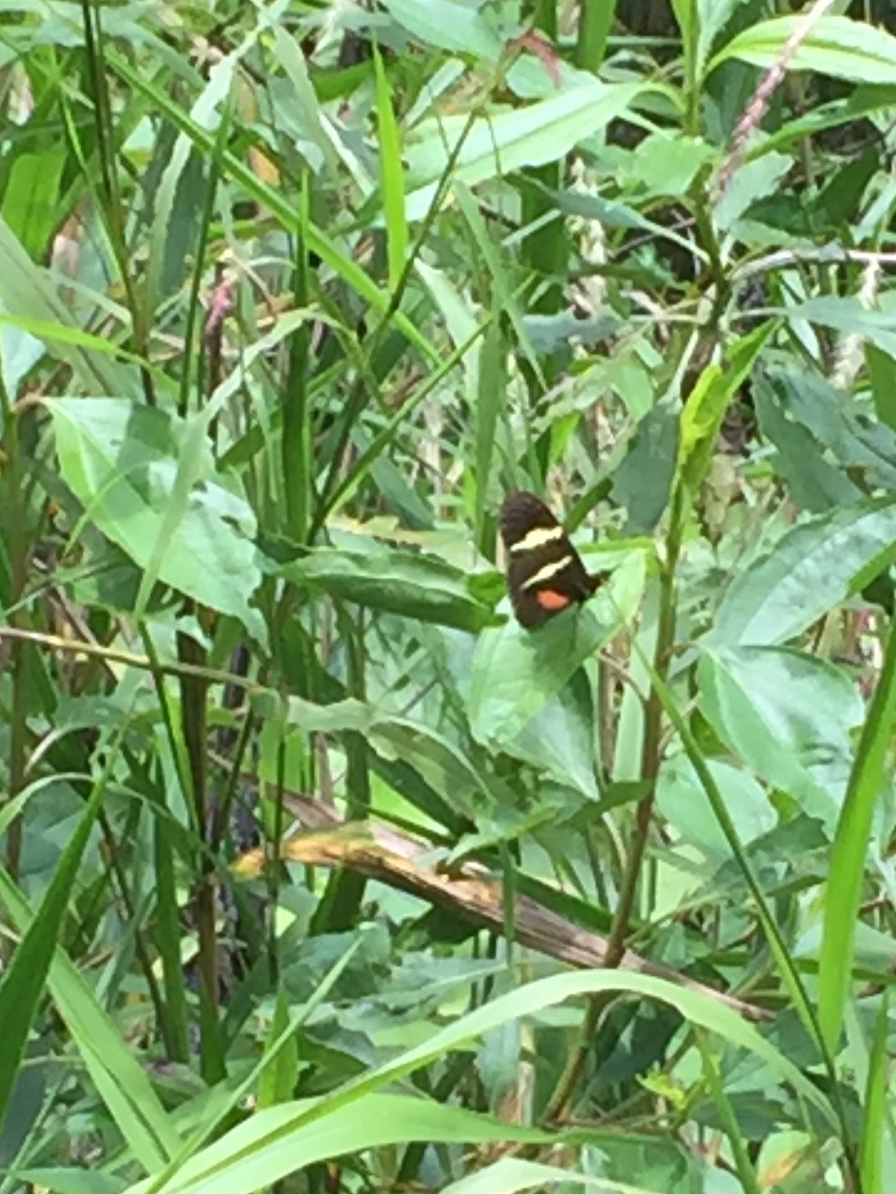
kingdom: Animalia
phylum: Arthropoda
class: Insecta
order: Lepidoptera
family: Nymphalidae
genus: Heliconius
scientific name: Heliconius clysonymus
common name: Clysonymus longwing
